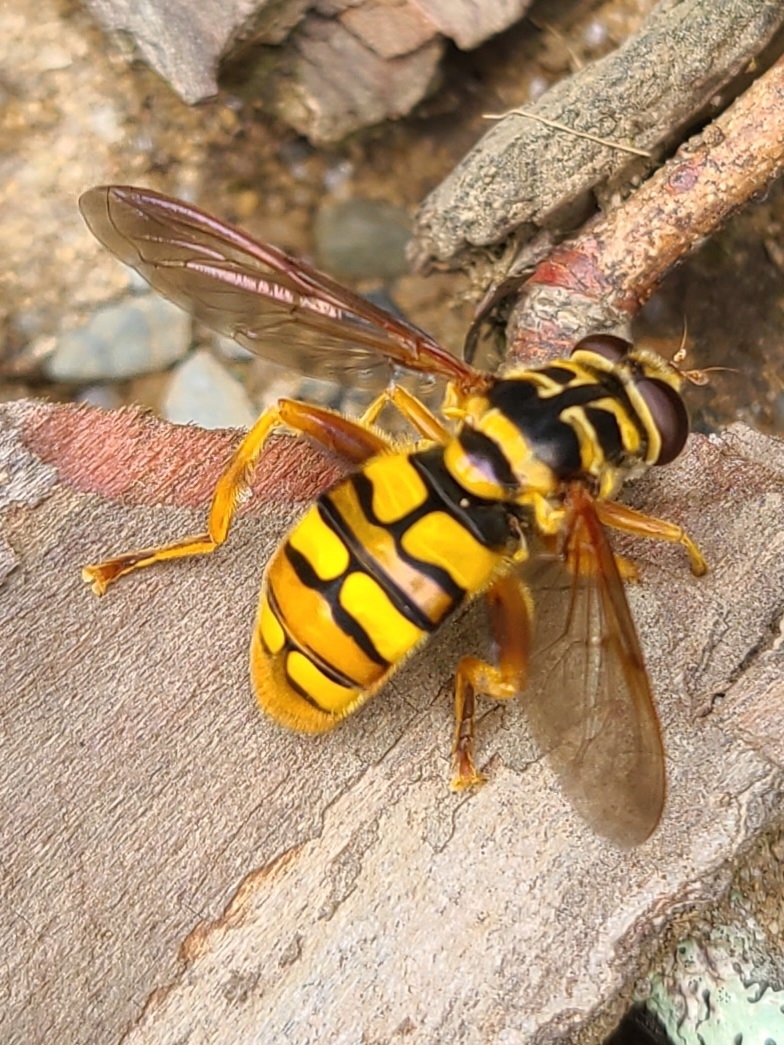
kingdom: Animalia
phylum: Arthropoda
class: Insecta
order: Diptera
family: Syrphidae
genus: Milesia
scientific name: Milesia virginiensis
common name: Virginia giant
